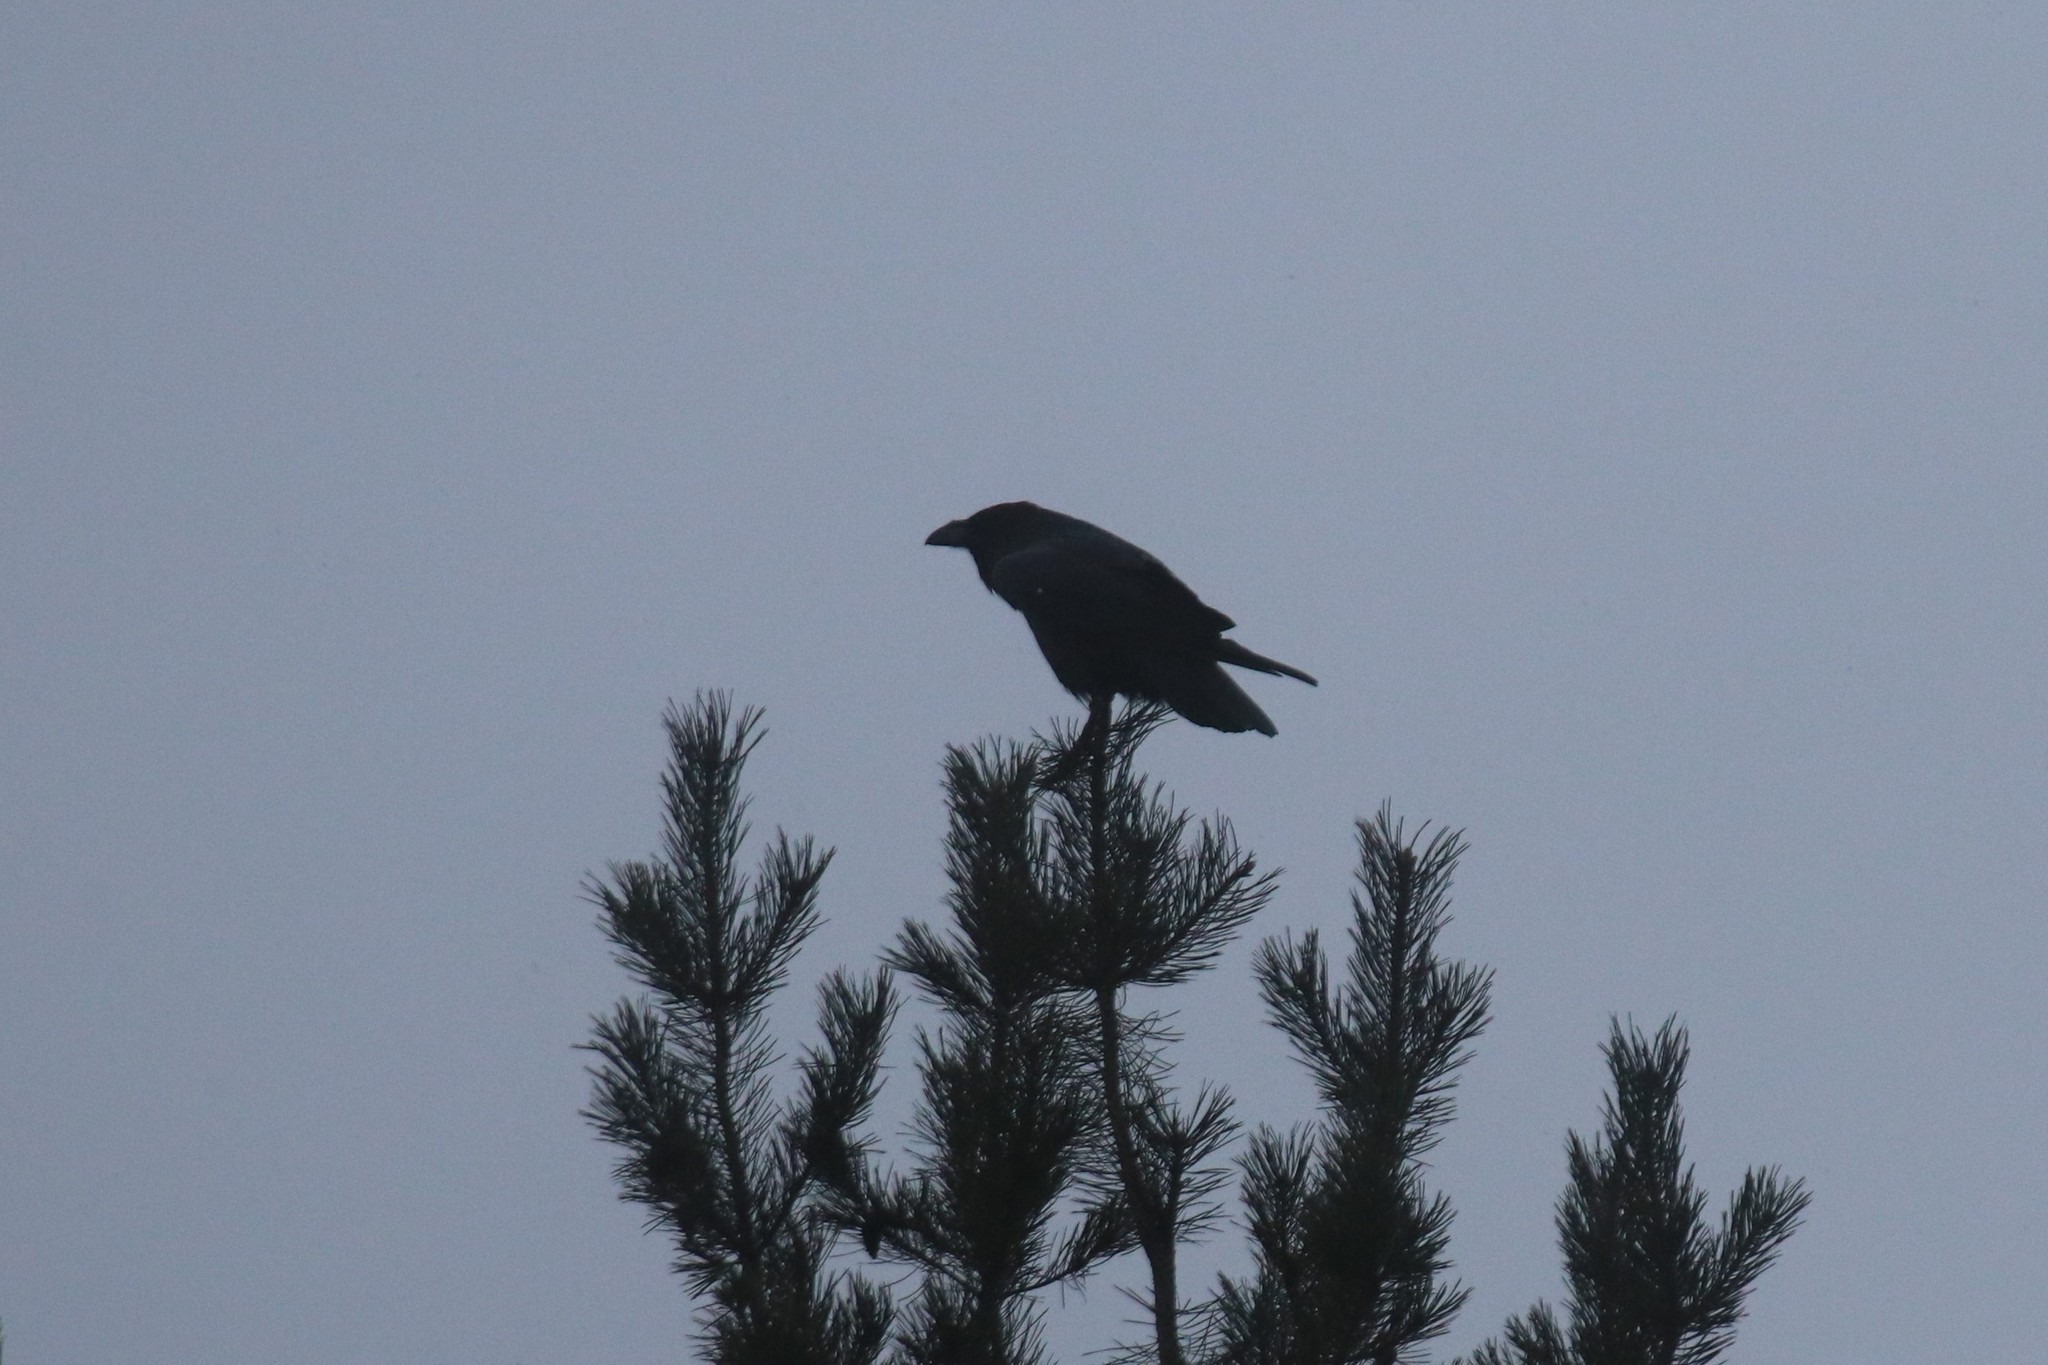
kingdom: Animalia
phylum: Chordata
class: Aves
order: Passeriformes
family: Corvidae
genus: Corvus
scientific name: Corvus corax
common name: Common raven
